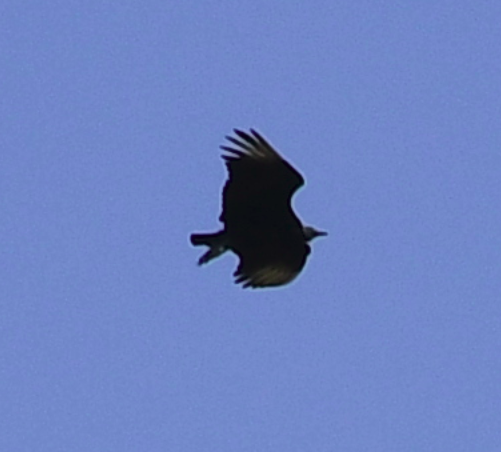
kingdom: Animalia
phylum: Chordata
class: Aves
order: Accipitriformes
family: Cathartidae
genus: Coragyps
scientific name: Coragyps atratus
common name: Black vulture
